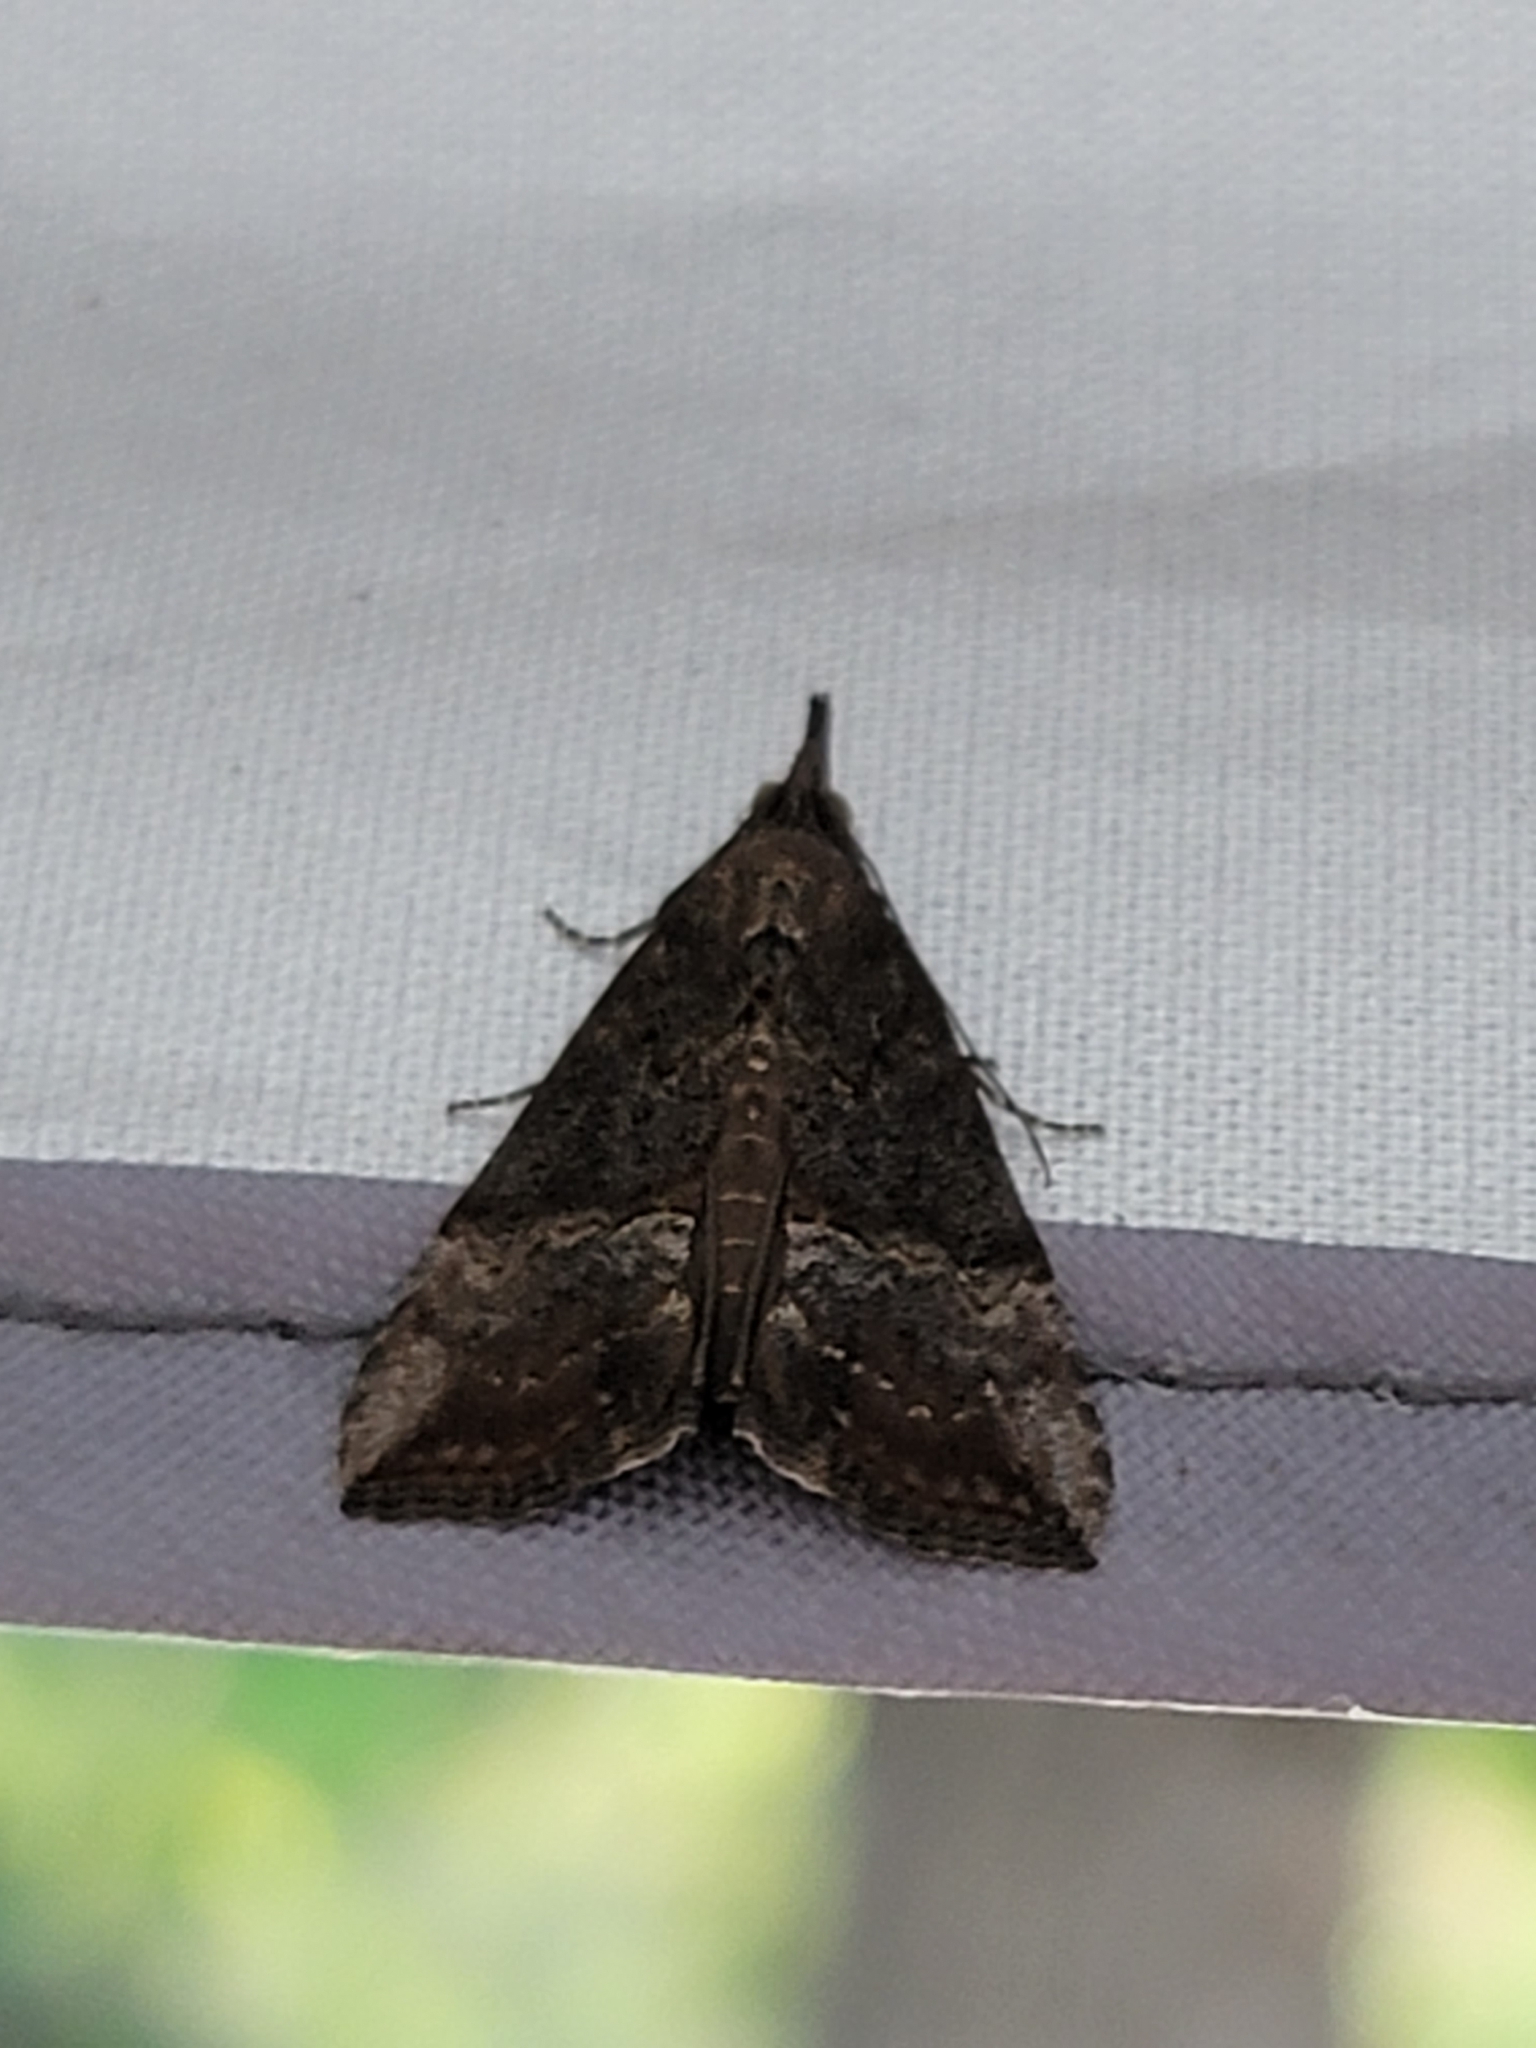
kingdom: Animalia
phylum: Arthropoda
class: Insecta
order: Lepidoptera
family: Erebidae
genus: Hypena
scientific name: Hypena scabra
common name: Green cloverworm
